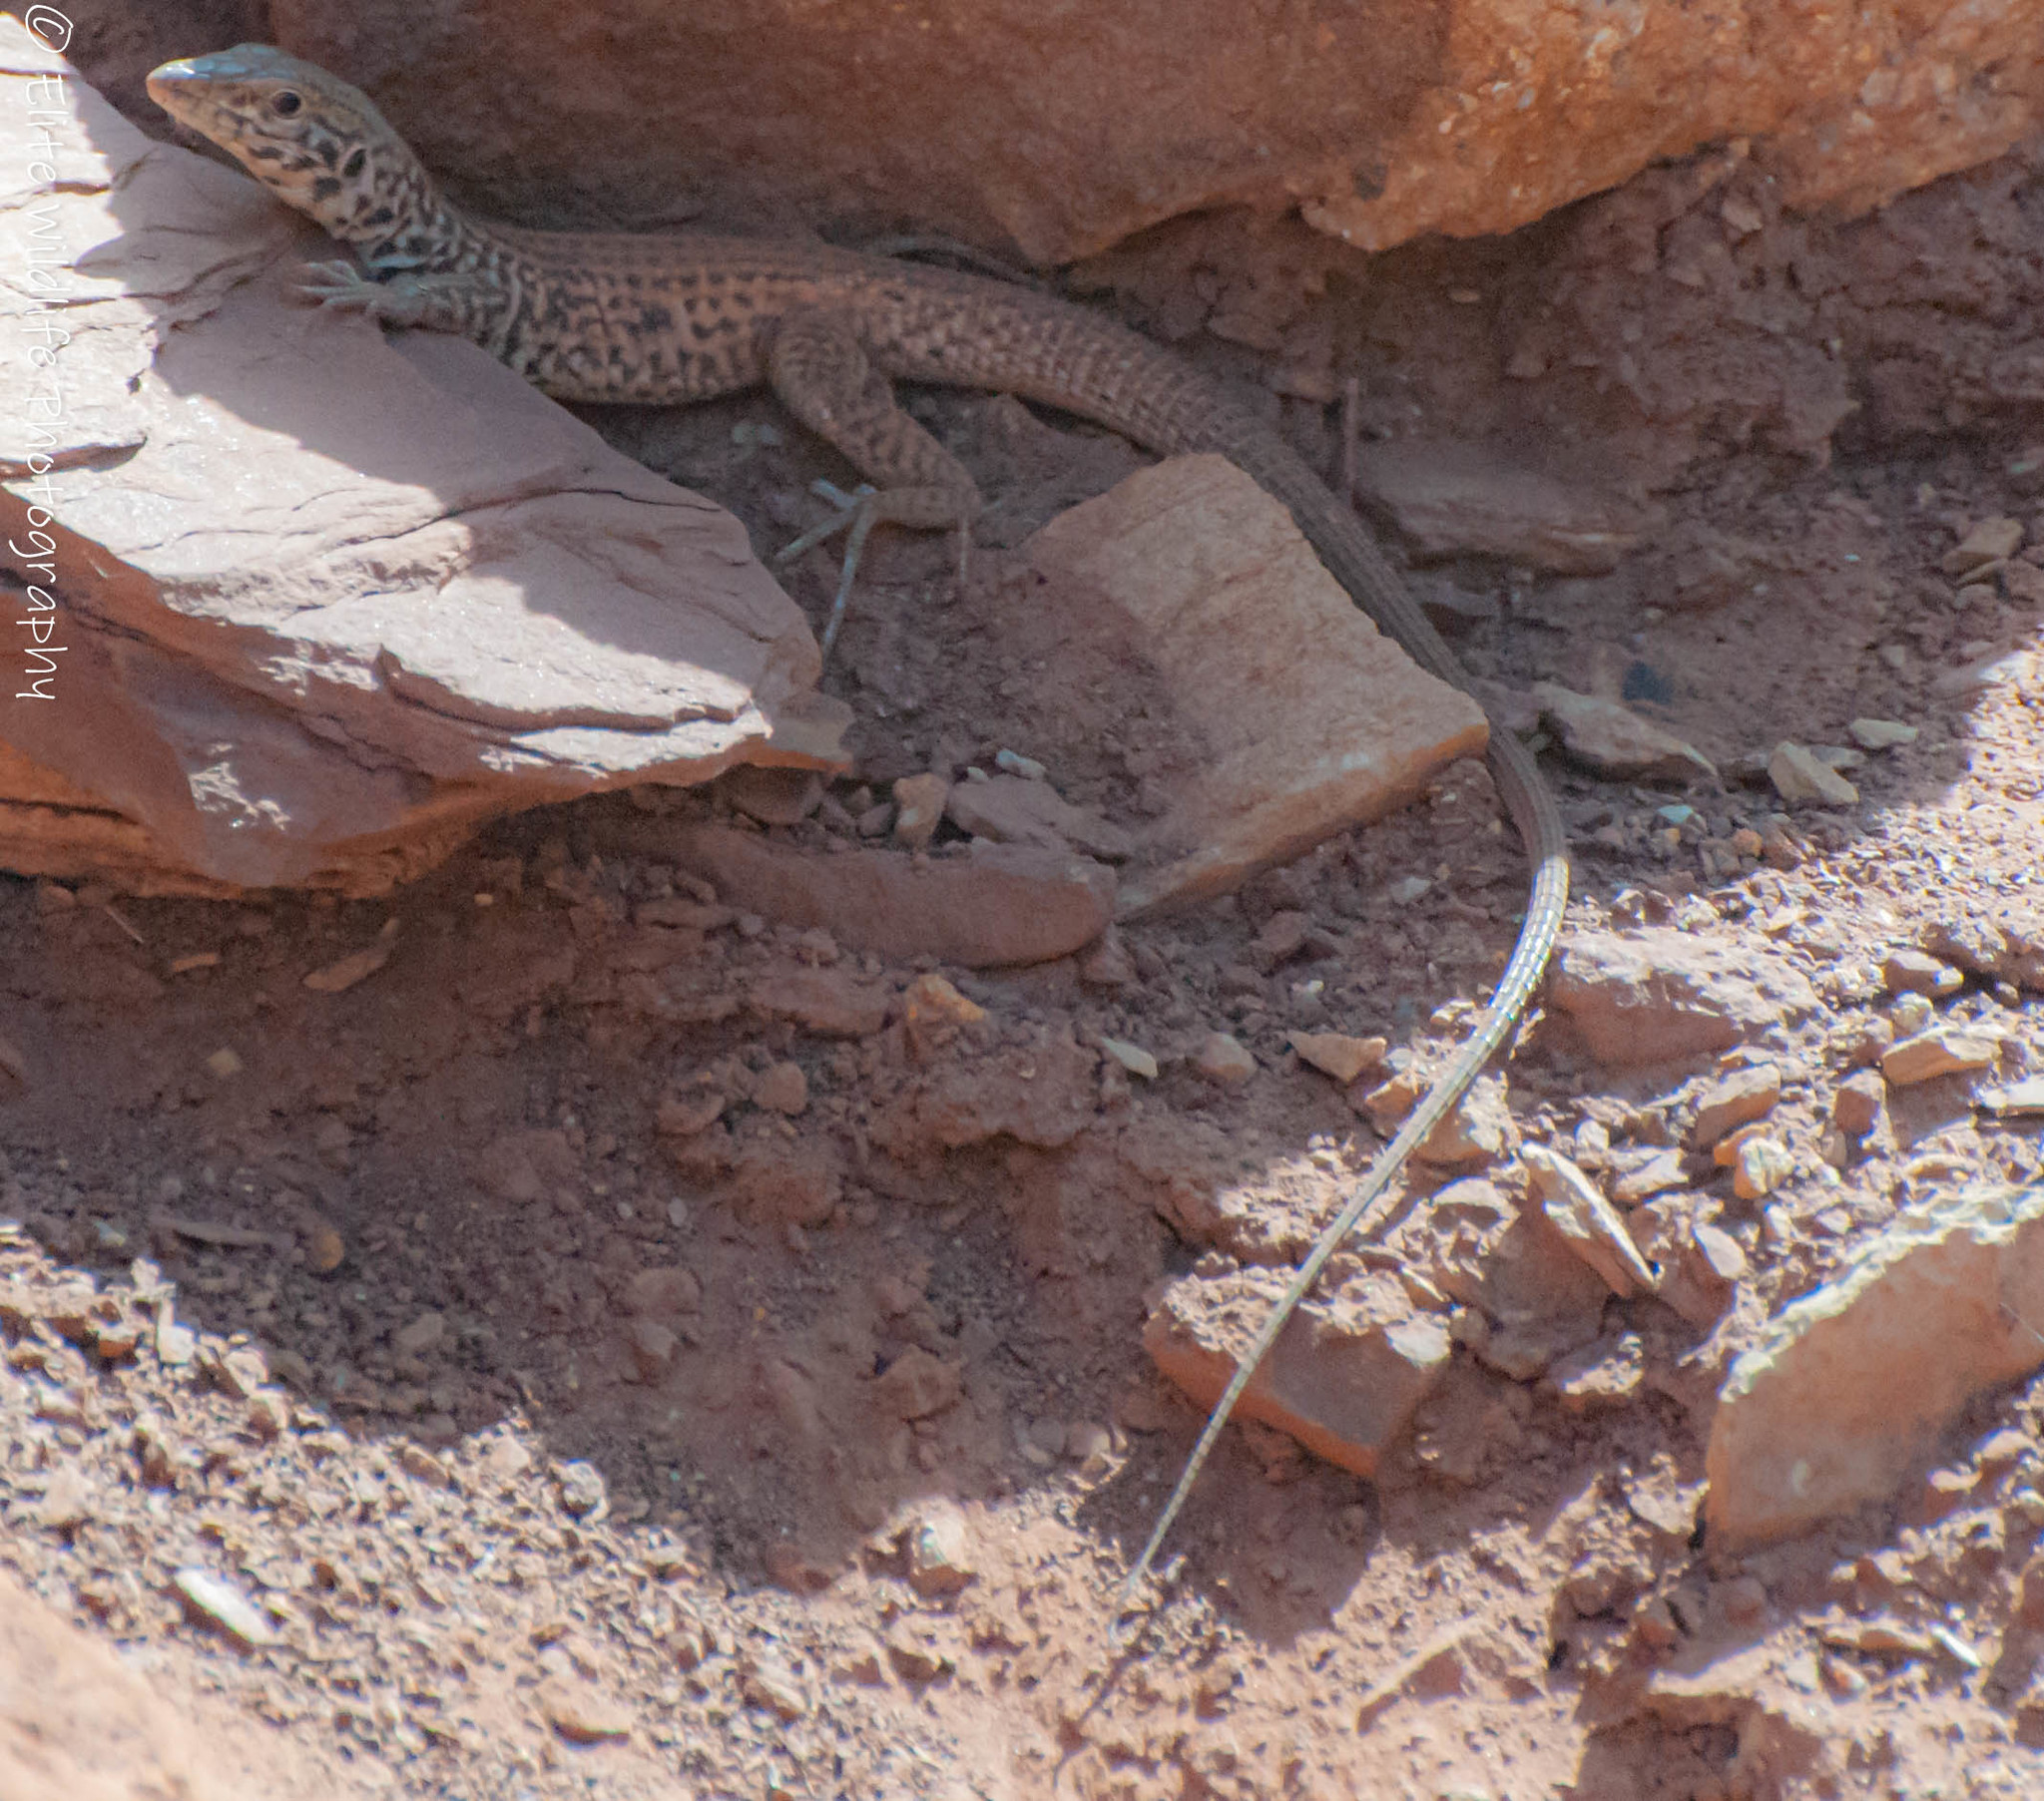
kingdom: Animalia
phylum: Chordata
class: Squamata
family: Teiidae
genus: Aspidoscelis
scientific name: Aspidoscelis tigris
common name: Tiger whiptail
